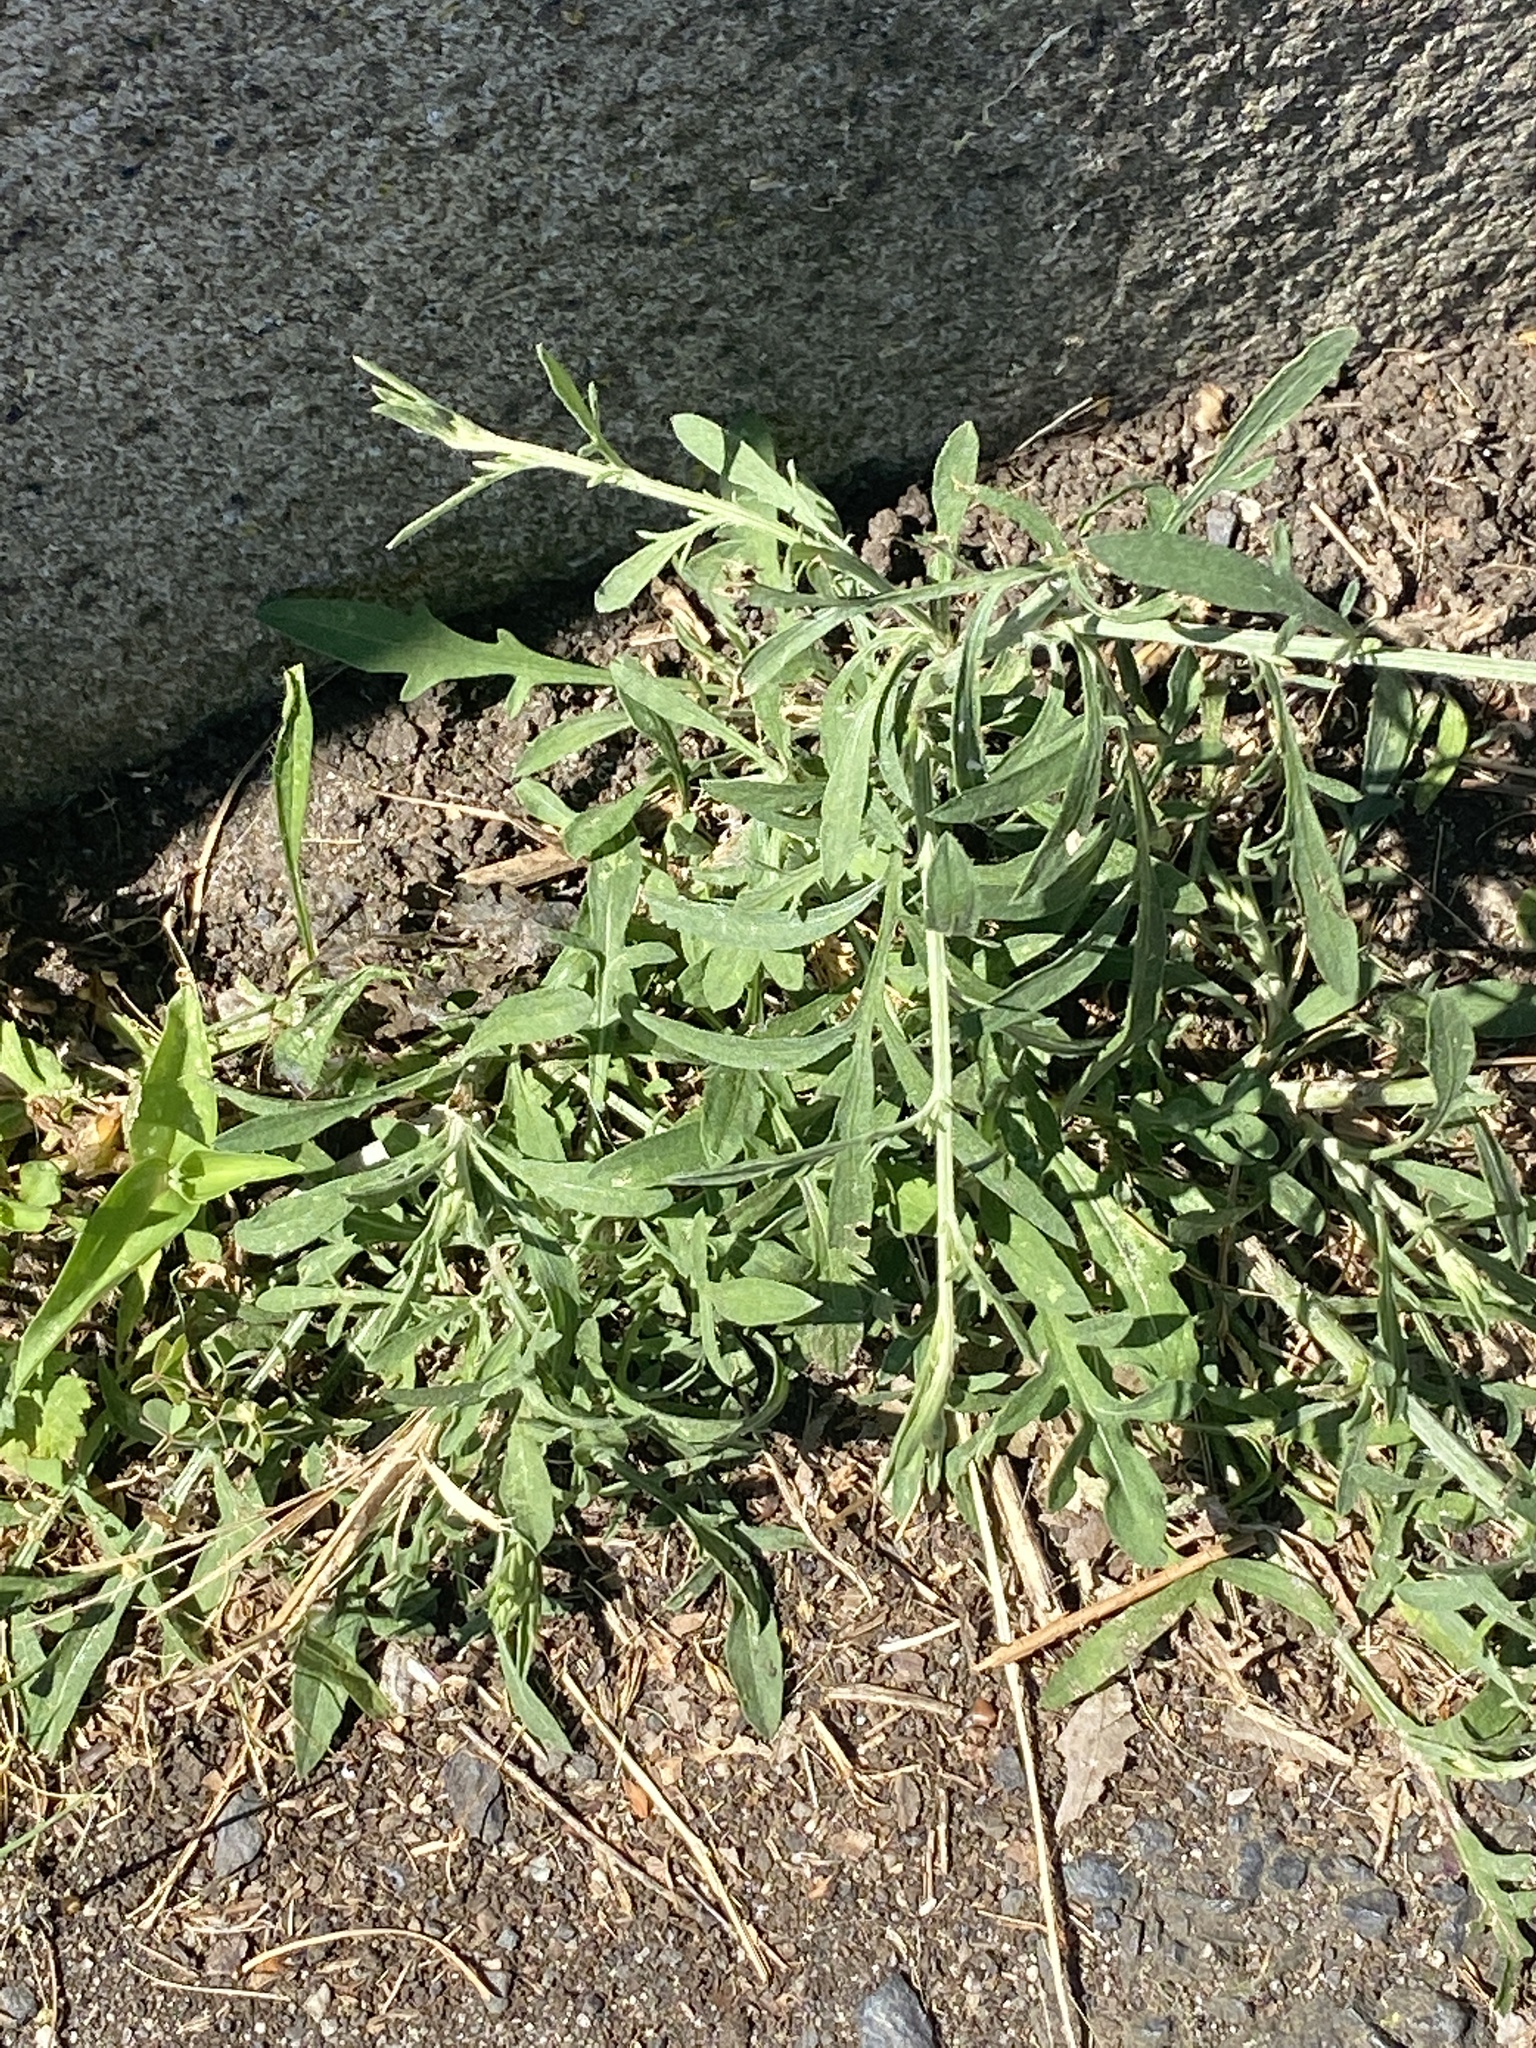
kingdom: Plantae
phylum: Tracheophyta
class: Magnoliopsida
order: Asterales
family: Asteraceae
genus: Centaurea
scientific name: Centaurea stoebe
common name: Spotted knapweed
